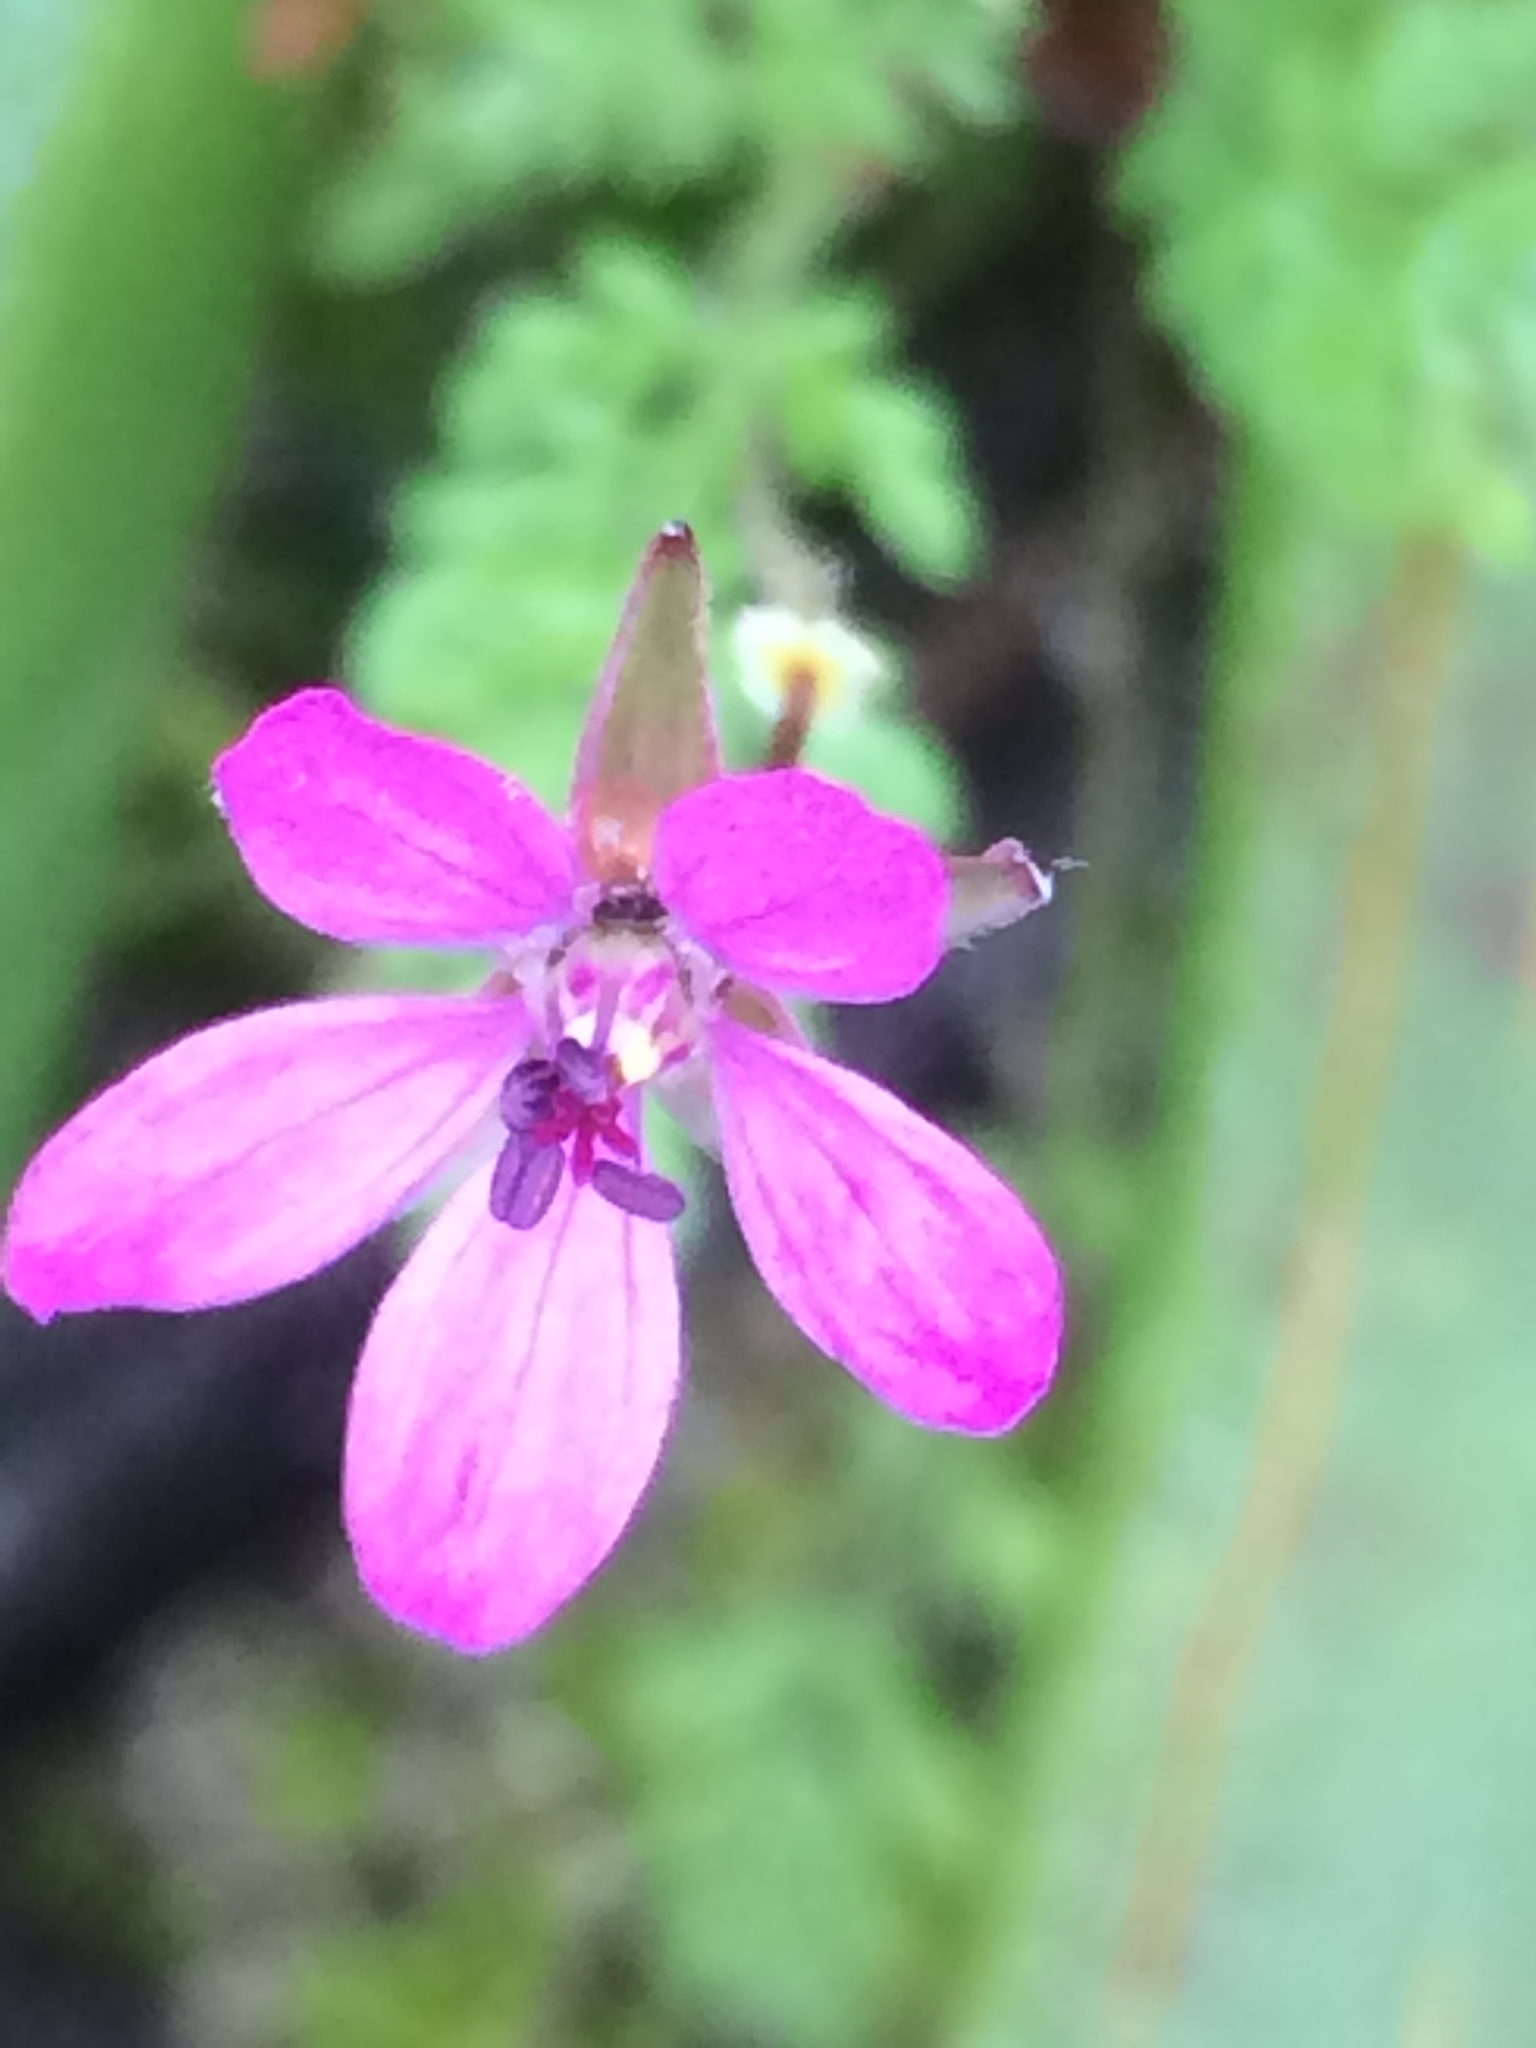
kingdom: Plantae
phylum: Tracheophyta
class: Magnoliopsida
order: Geraniales
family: Geraniaceae
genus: Erodium
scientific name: Erodium cicutarium
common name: Common stork's-bill
